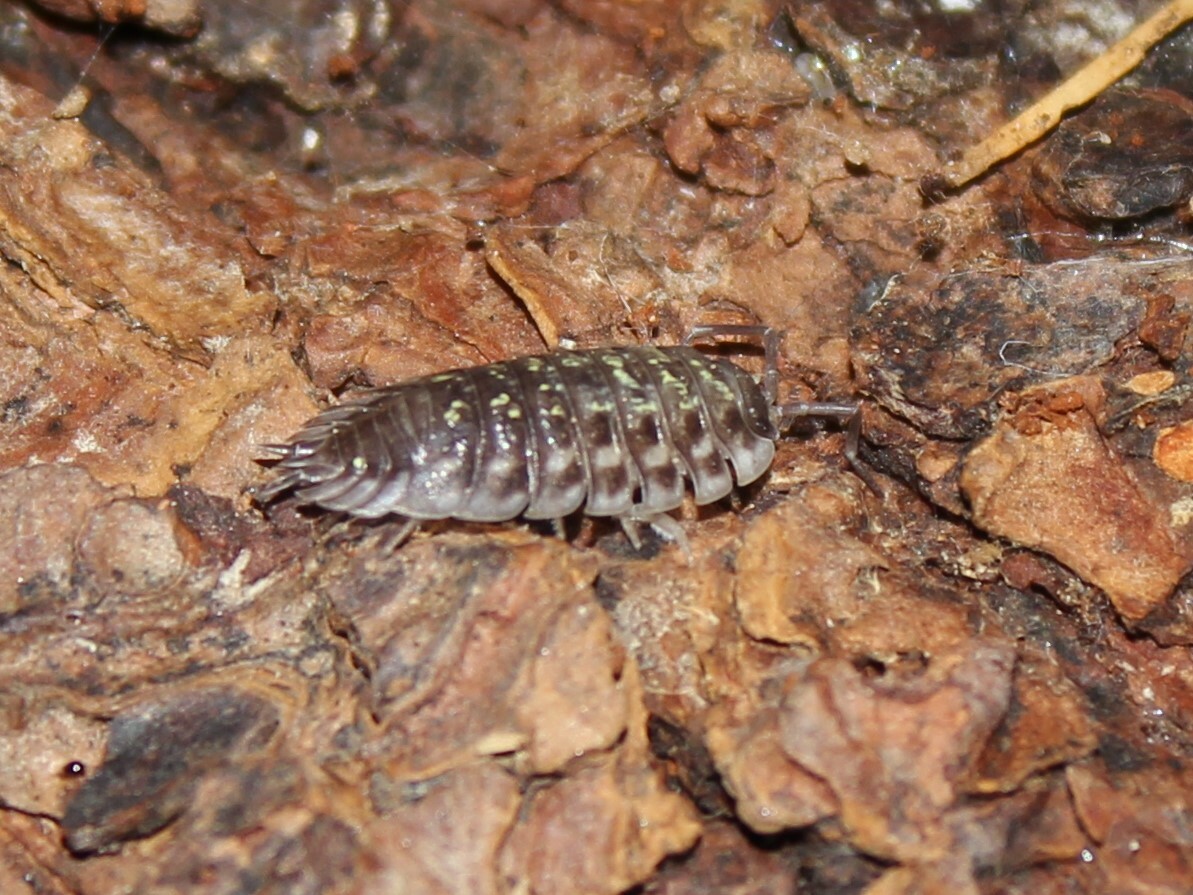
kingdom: Animalia
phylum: Arthropoda
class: Malacostraca
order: Isopoda
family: Oniscidae
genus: Oniscus
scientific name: Oniscus asellus
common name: Common shiny woodlouse
